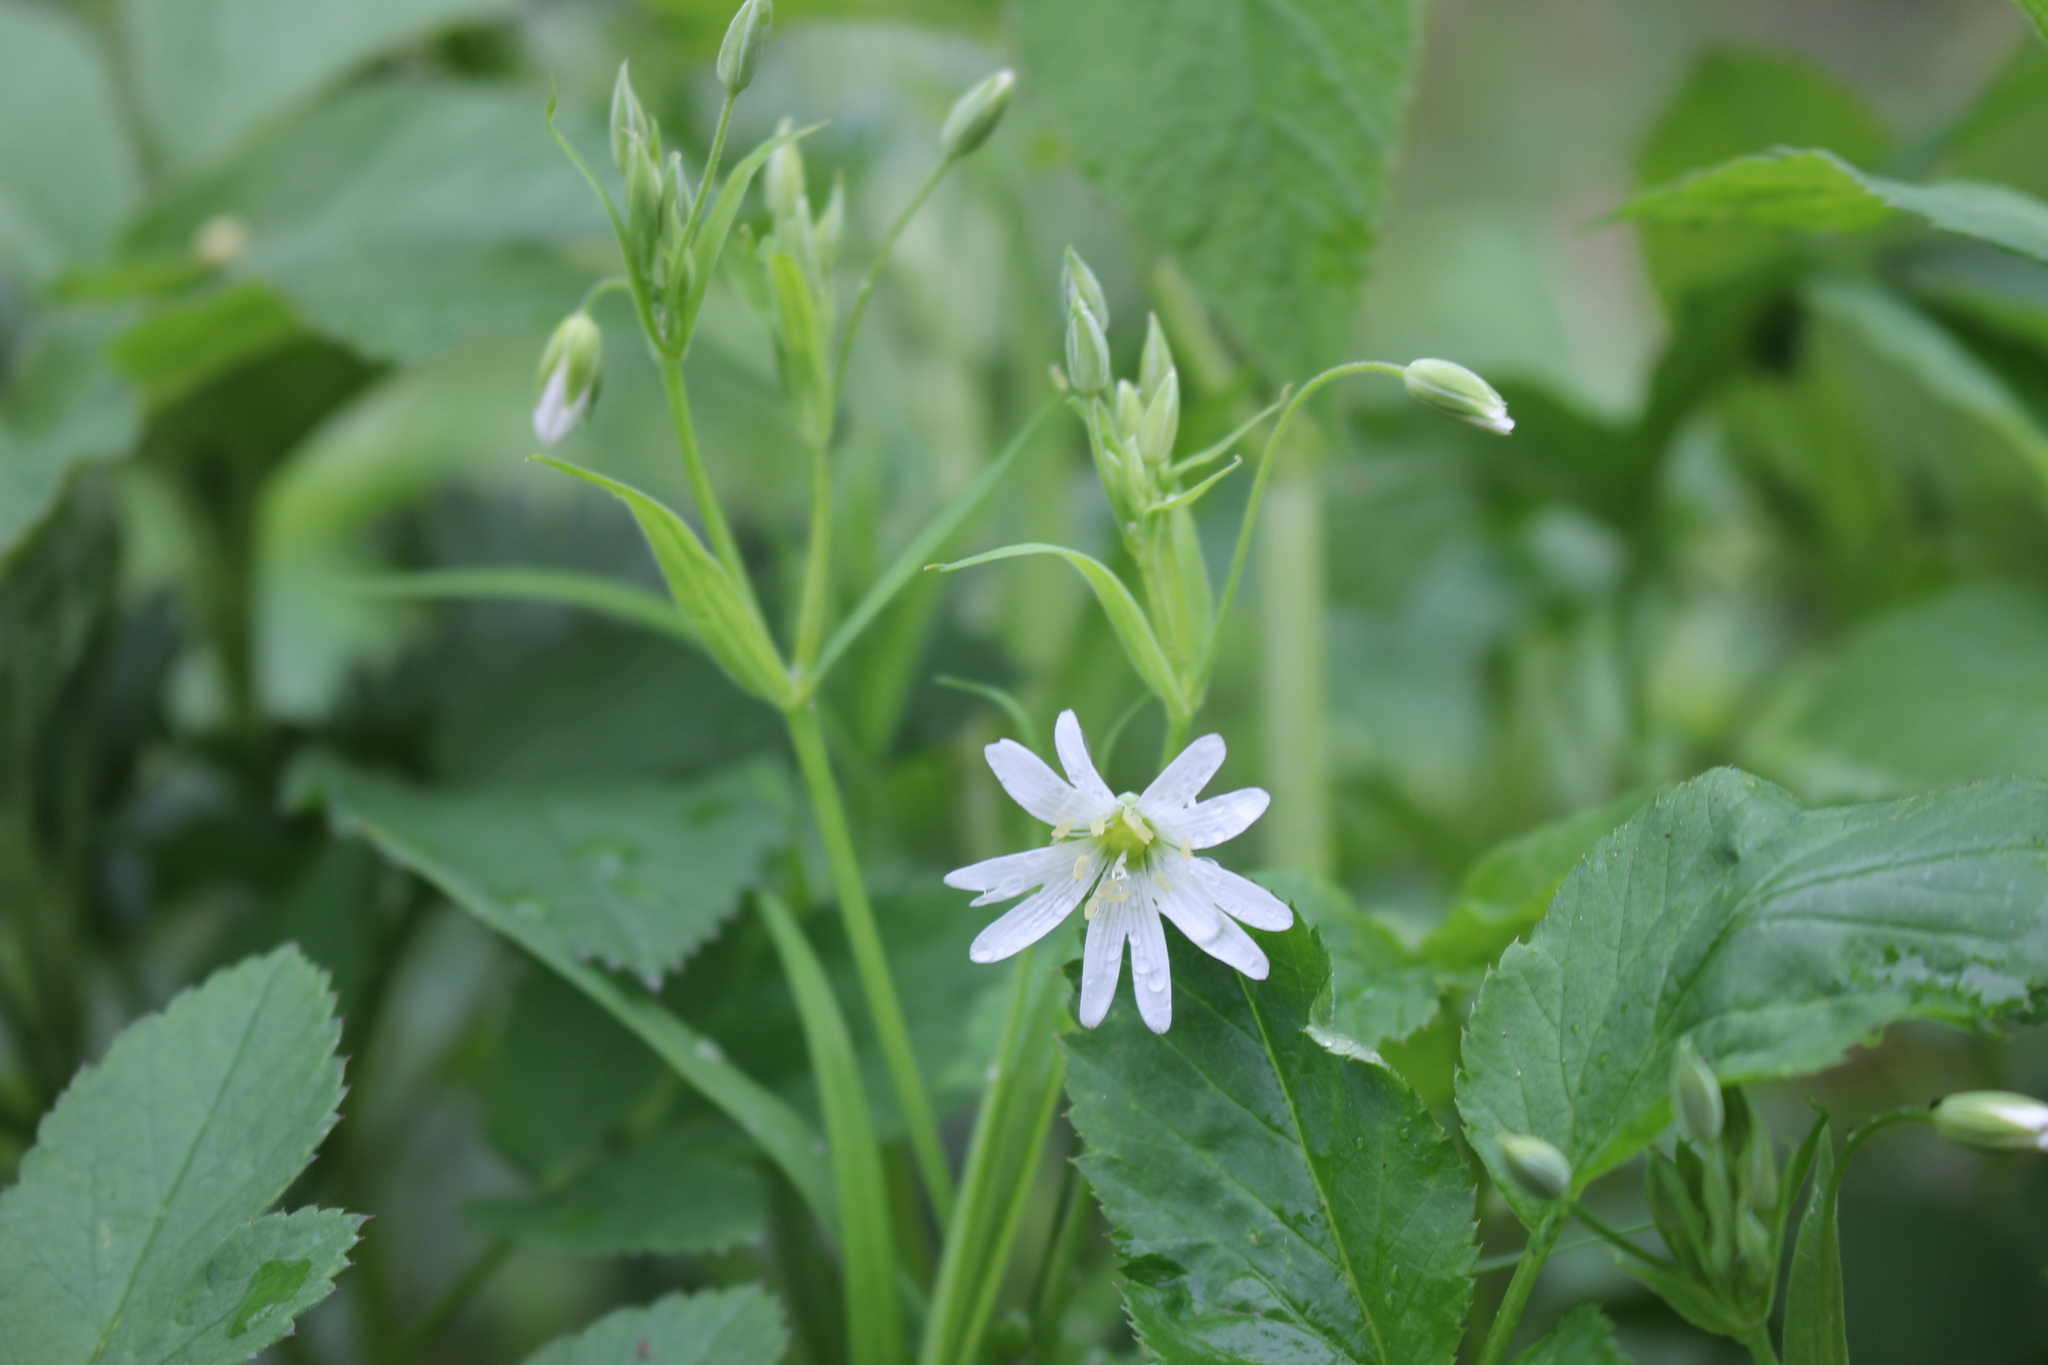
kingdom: Plantae
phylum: Tracheophyta
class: Magnoliopsida
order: Caryophyllales
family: Caryophyllaceae
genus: Rabelera
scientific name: Rabelera holostea
